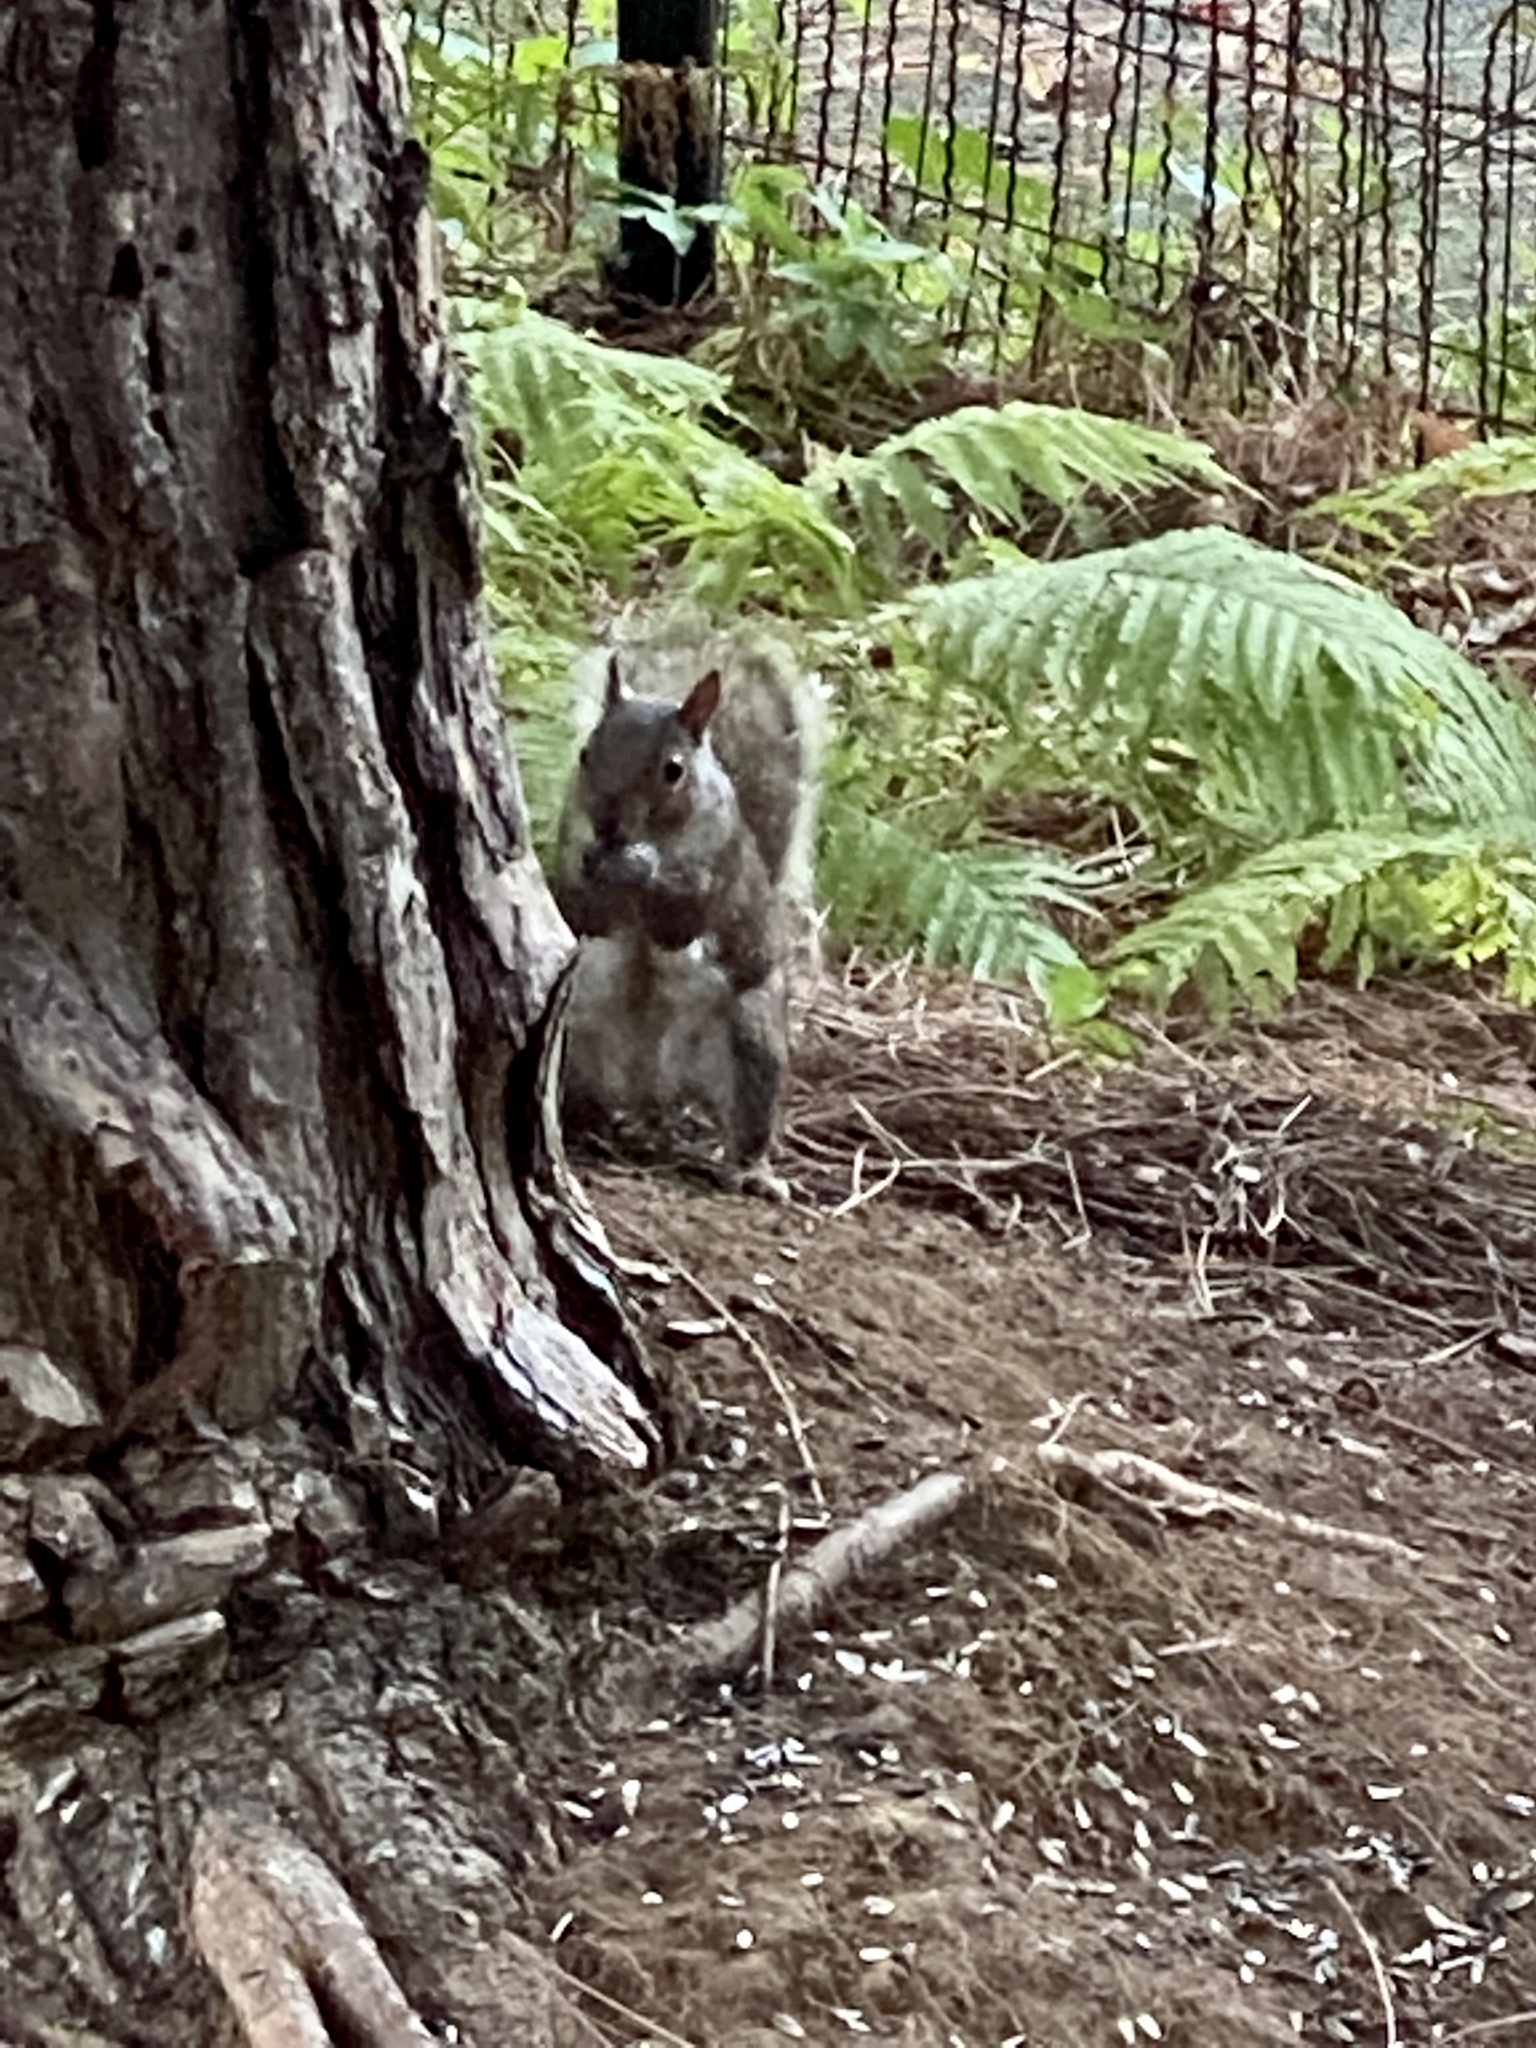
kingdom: Animalia
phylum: Chordata
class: Mammalia
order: Rodentia
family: Sciuridae
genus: Sciurus
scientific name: Sciurus carolinensis
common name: Eastern gray squirrel
